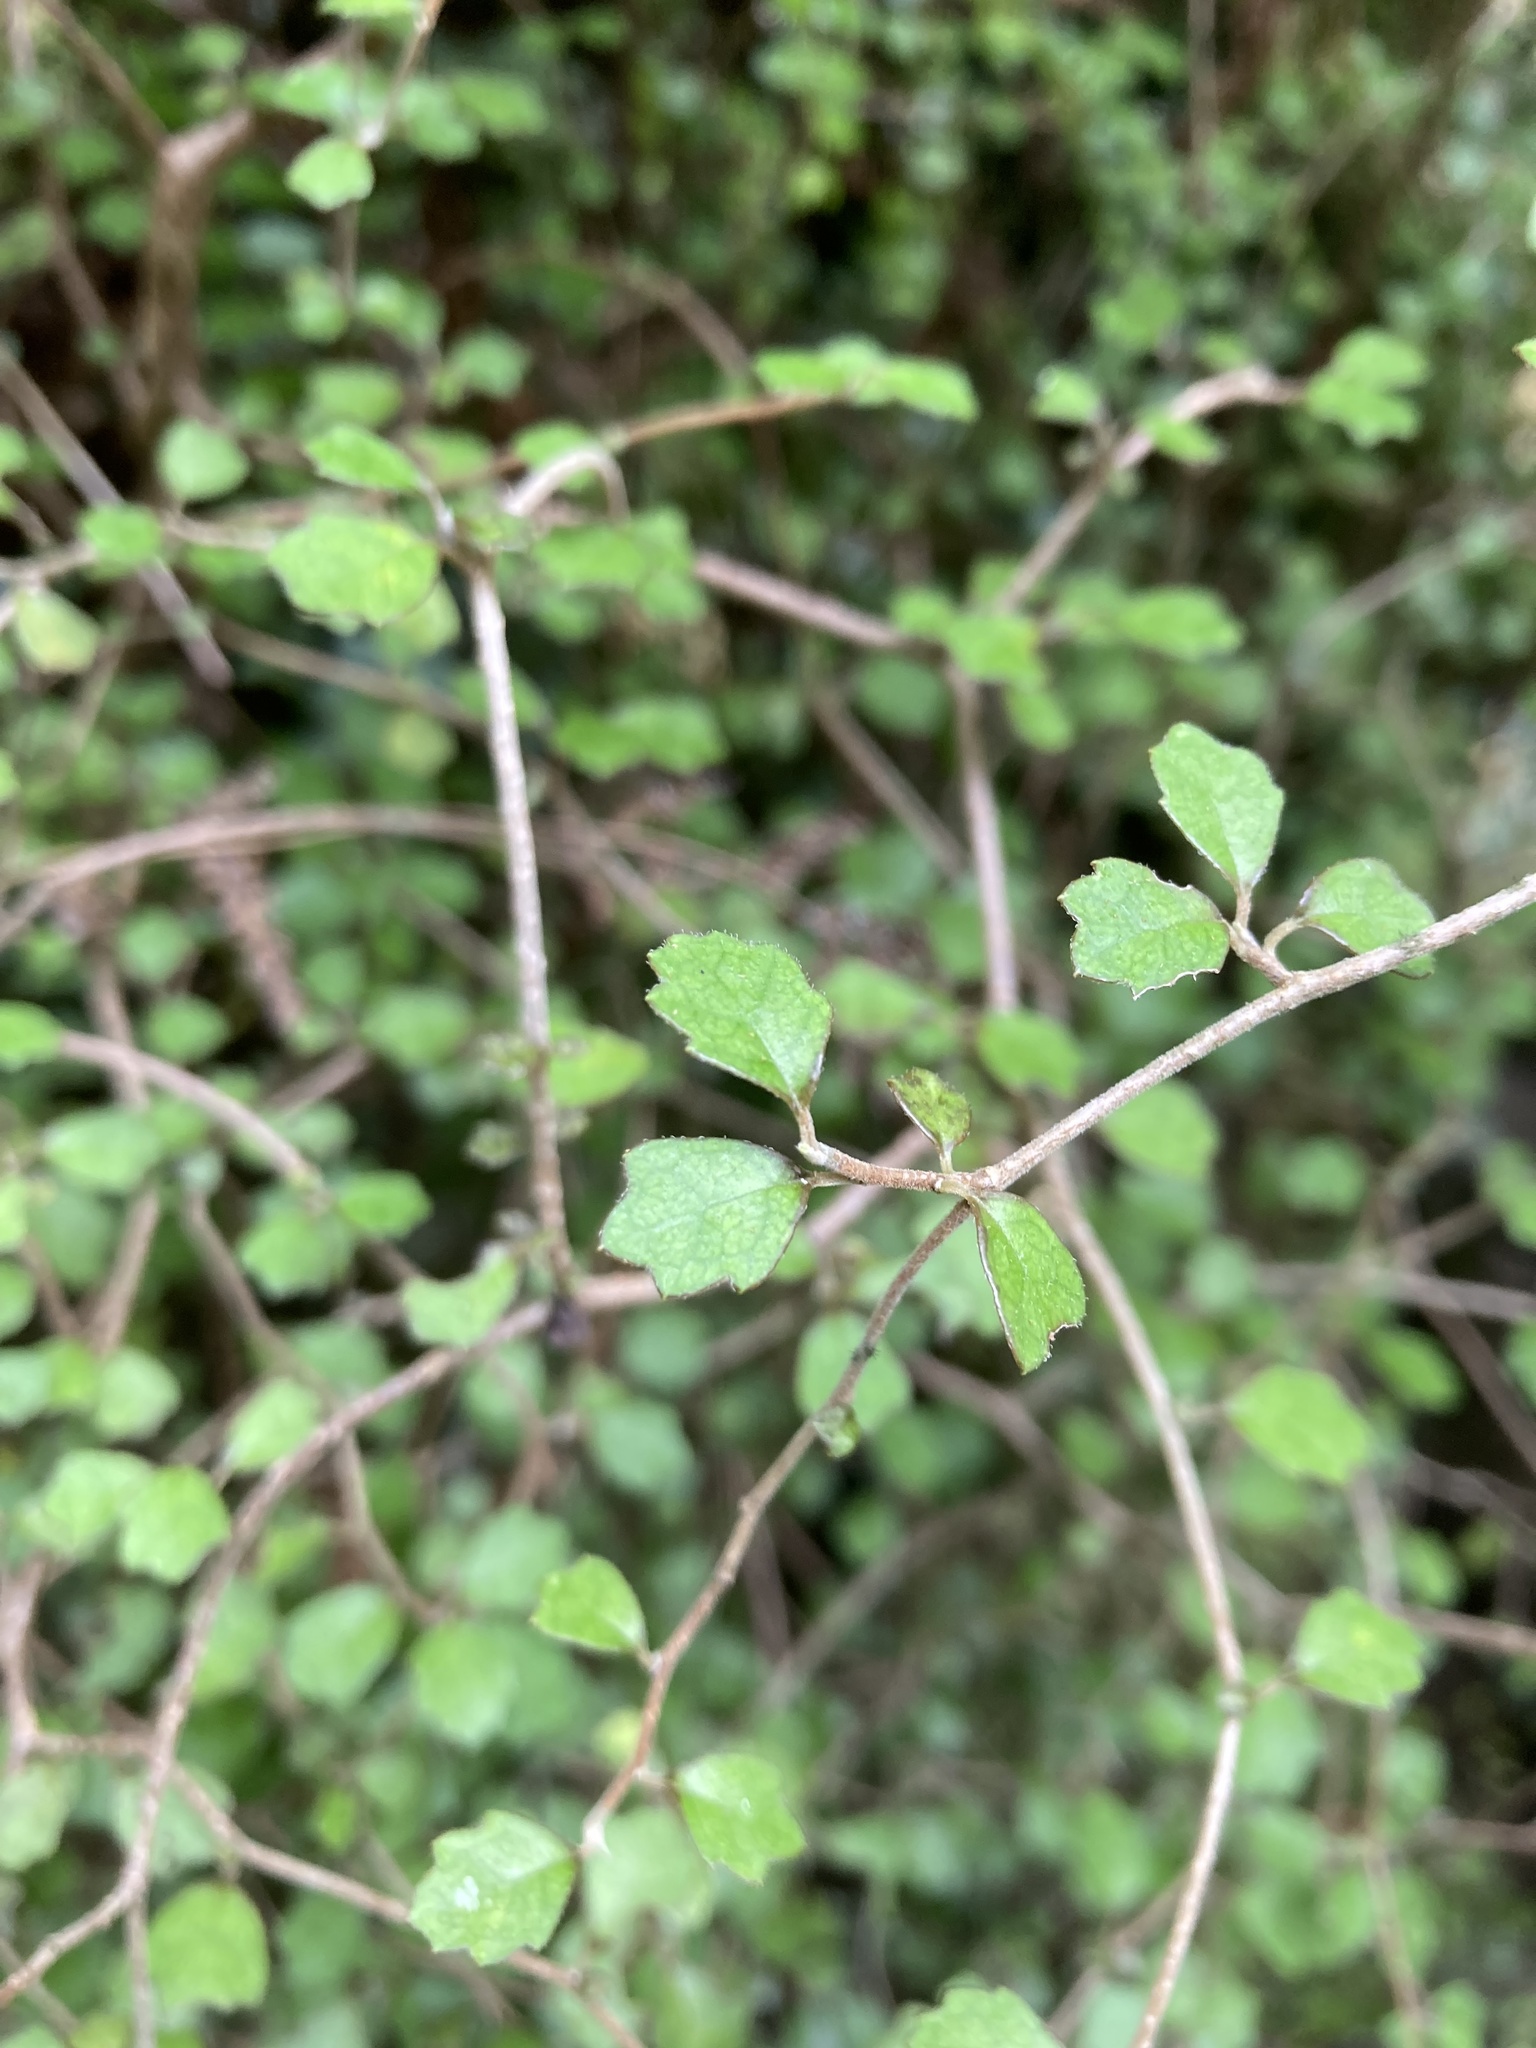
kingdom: Plantae
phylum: Tracheophyta
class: Magnoliopsida
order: Apiales
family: Pennantiaceae
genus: Pennantia
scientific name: Pennantia corymbosa
